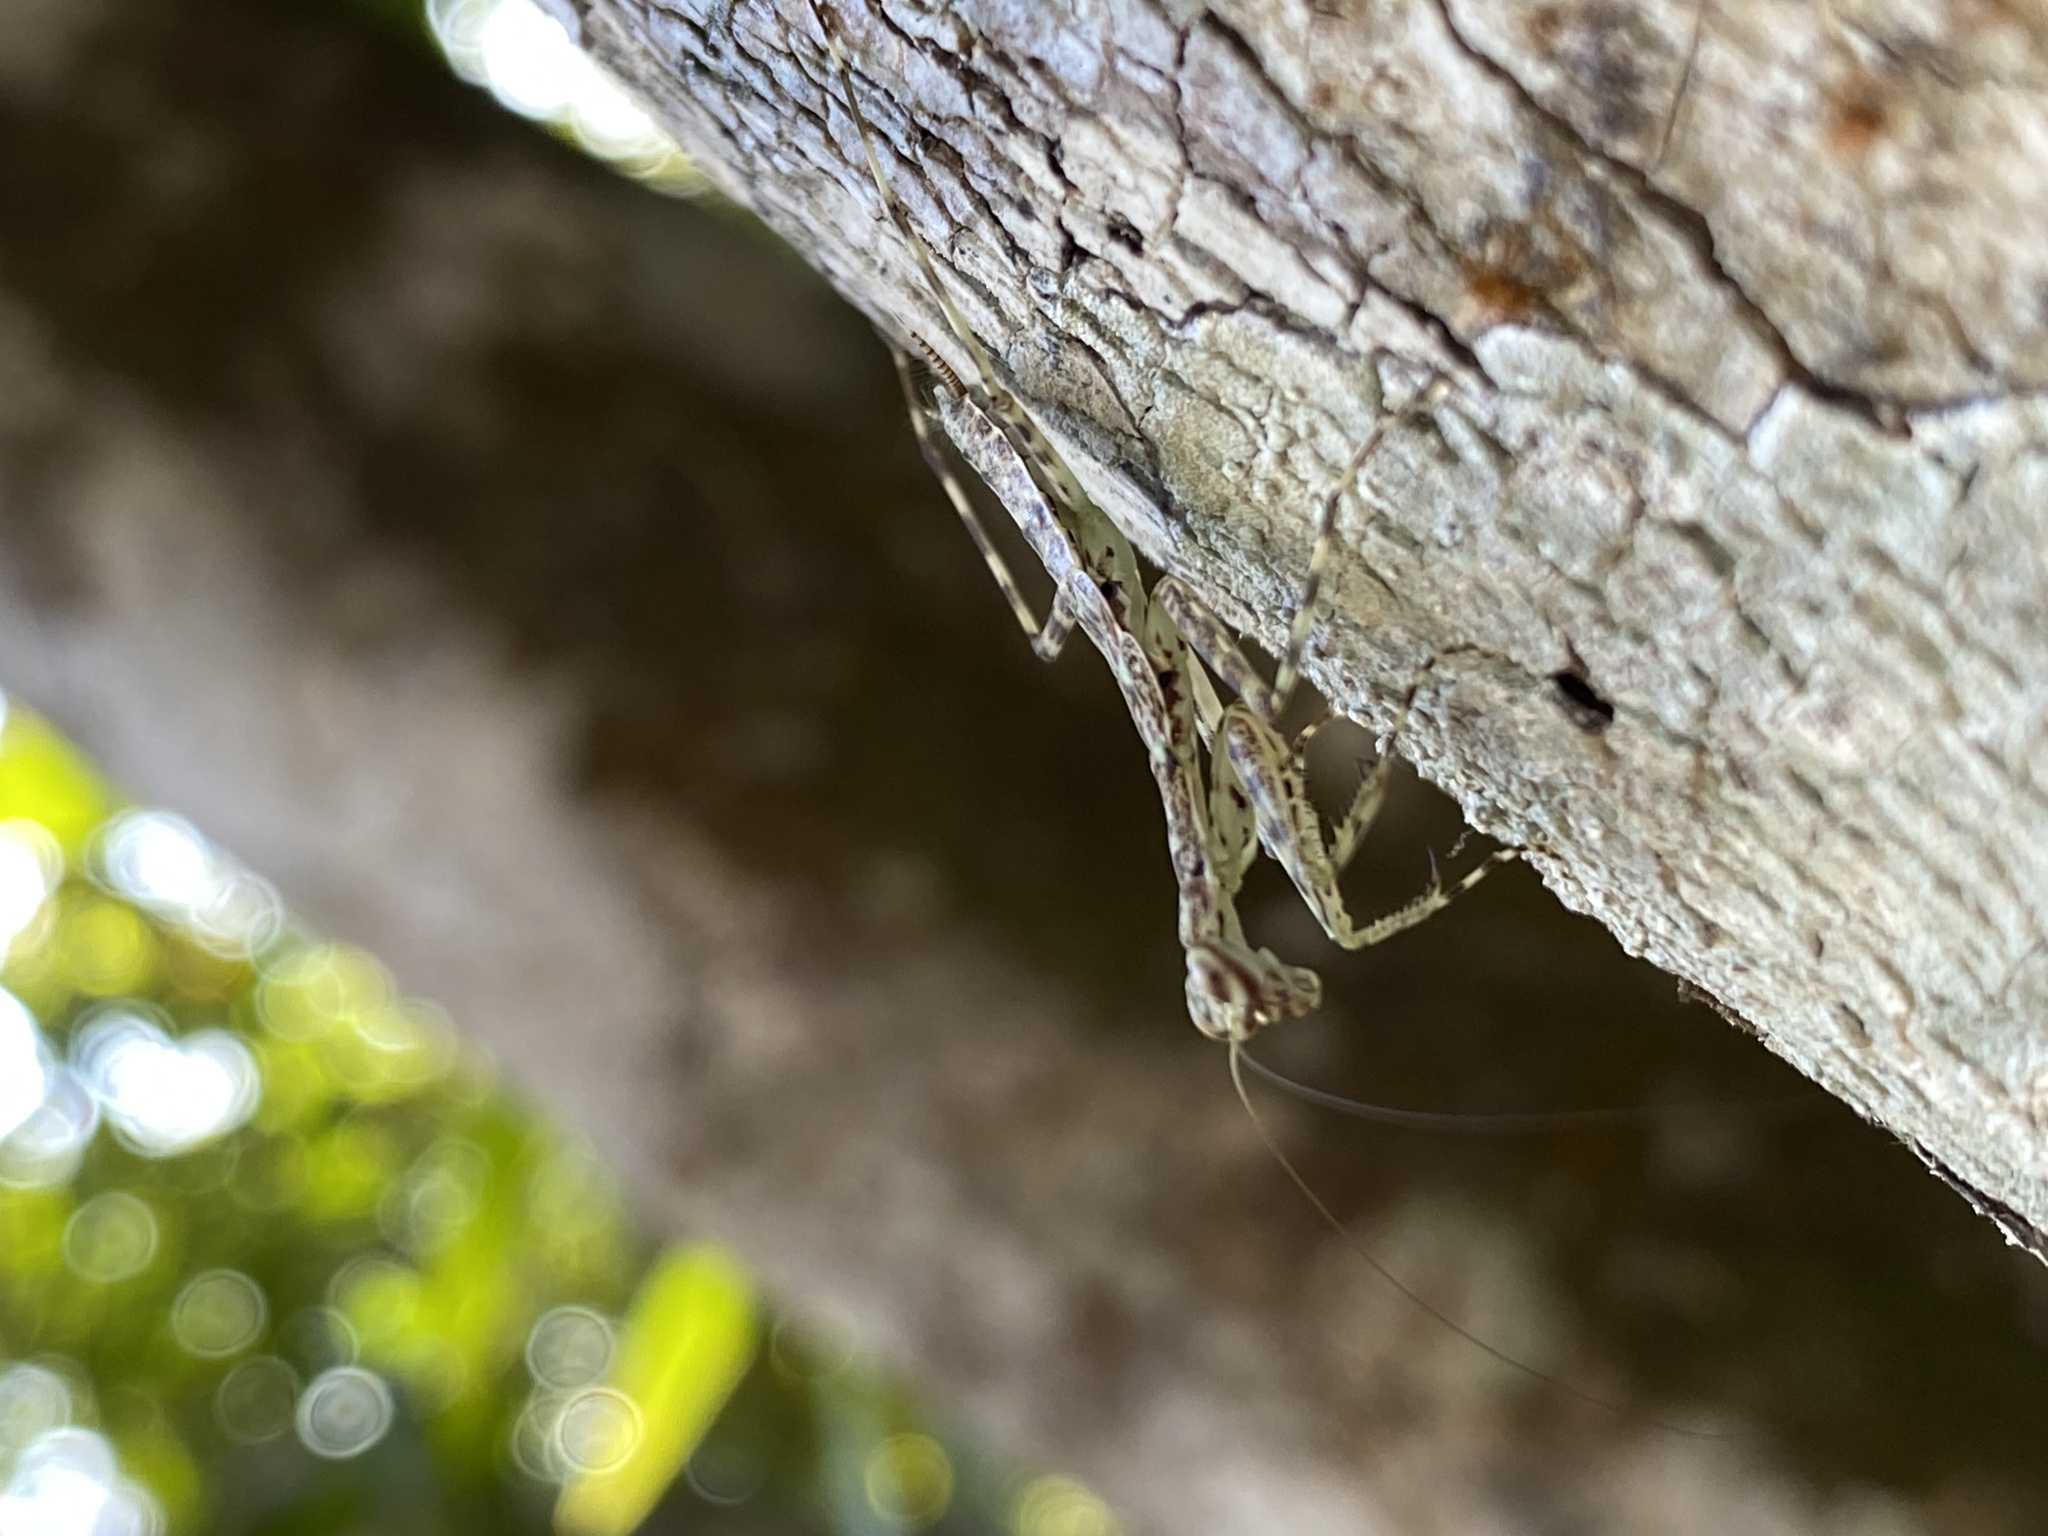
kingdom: Animalia
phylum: Arthropoda
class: Insecta
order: Mantodea
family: Liturgusidae
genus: Liturgusa
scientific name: Liturgusa maya
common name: Mantis
